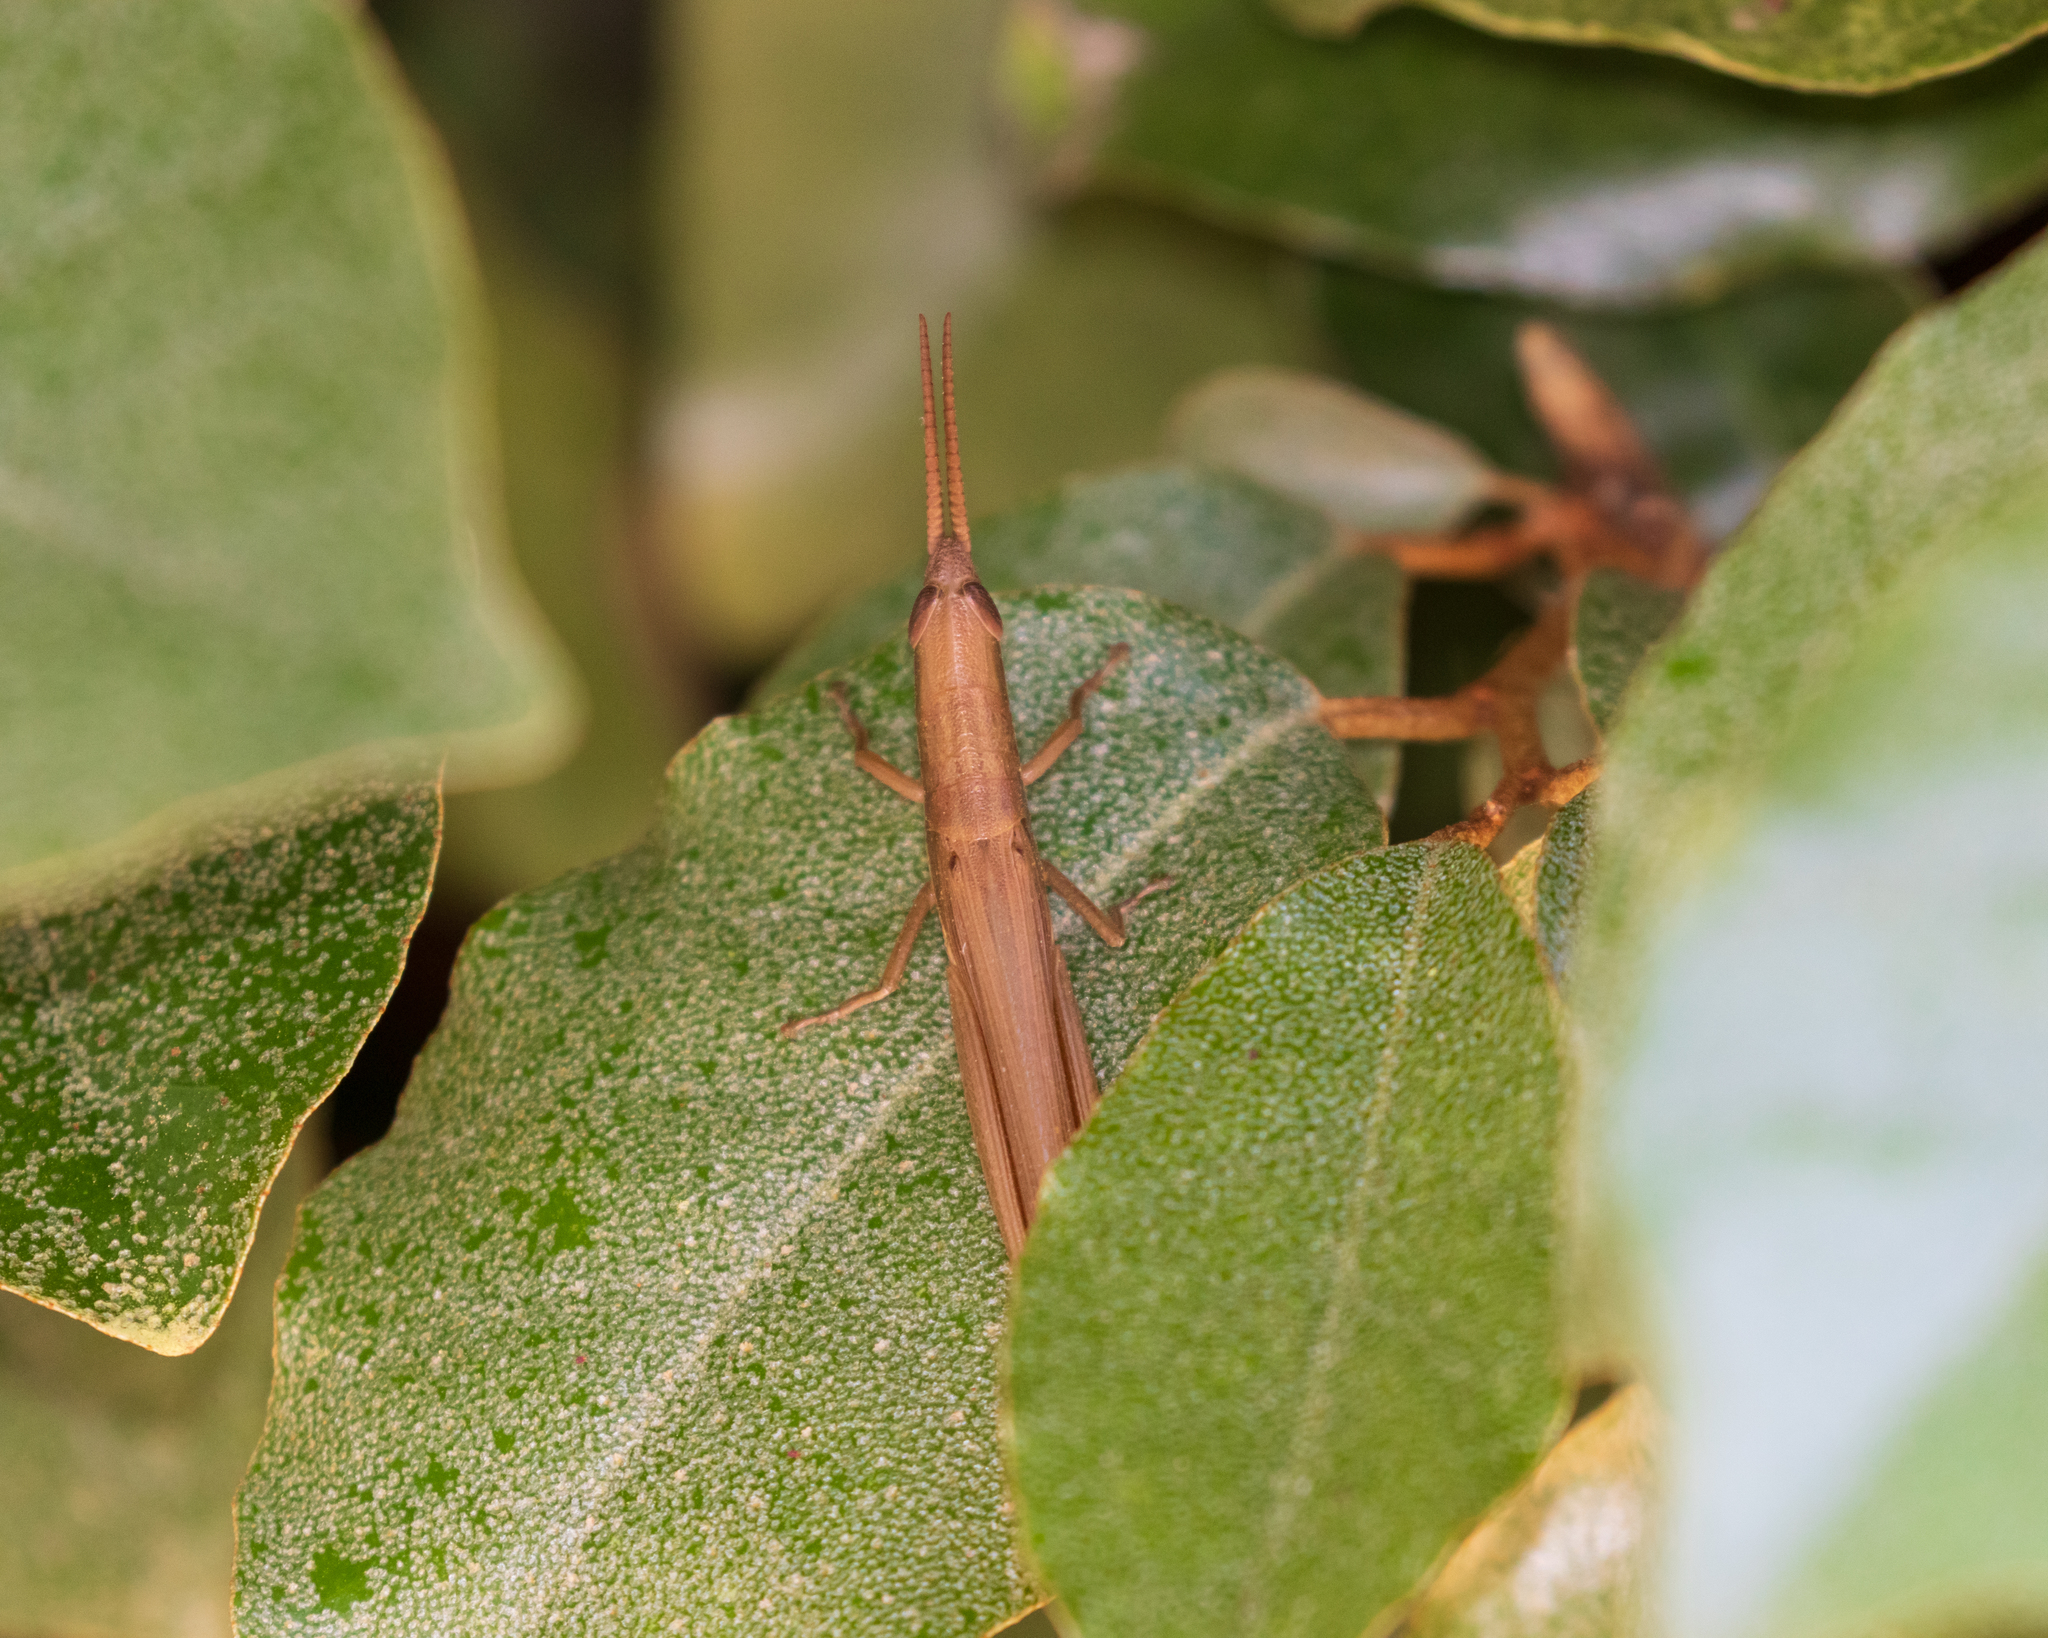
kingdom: Animalia
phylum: Arthropoda
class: Insecta
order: Orthoptera
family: Acrididae
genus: Leptysma
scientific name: Leptysma marginicollis
